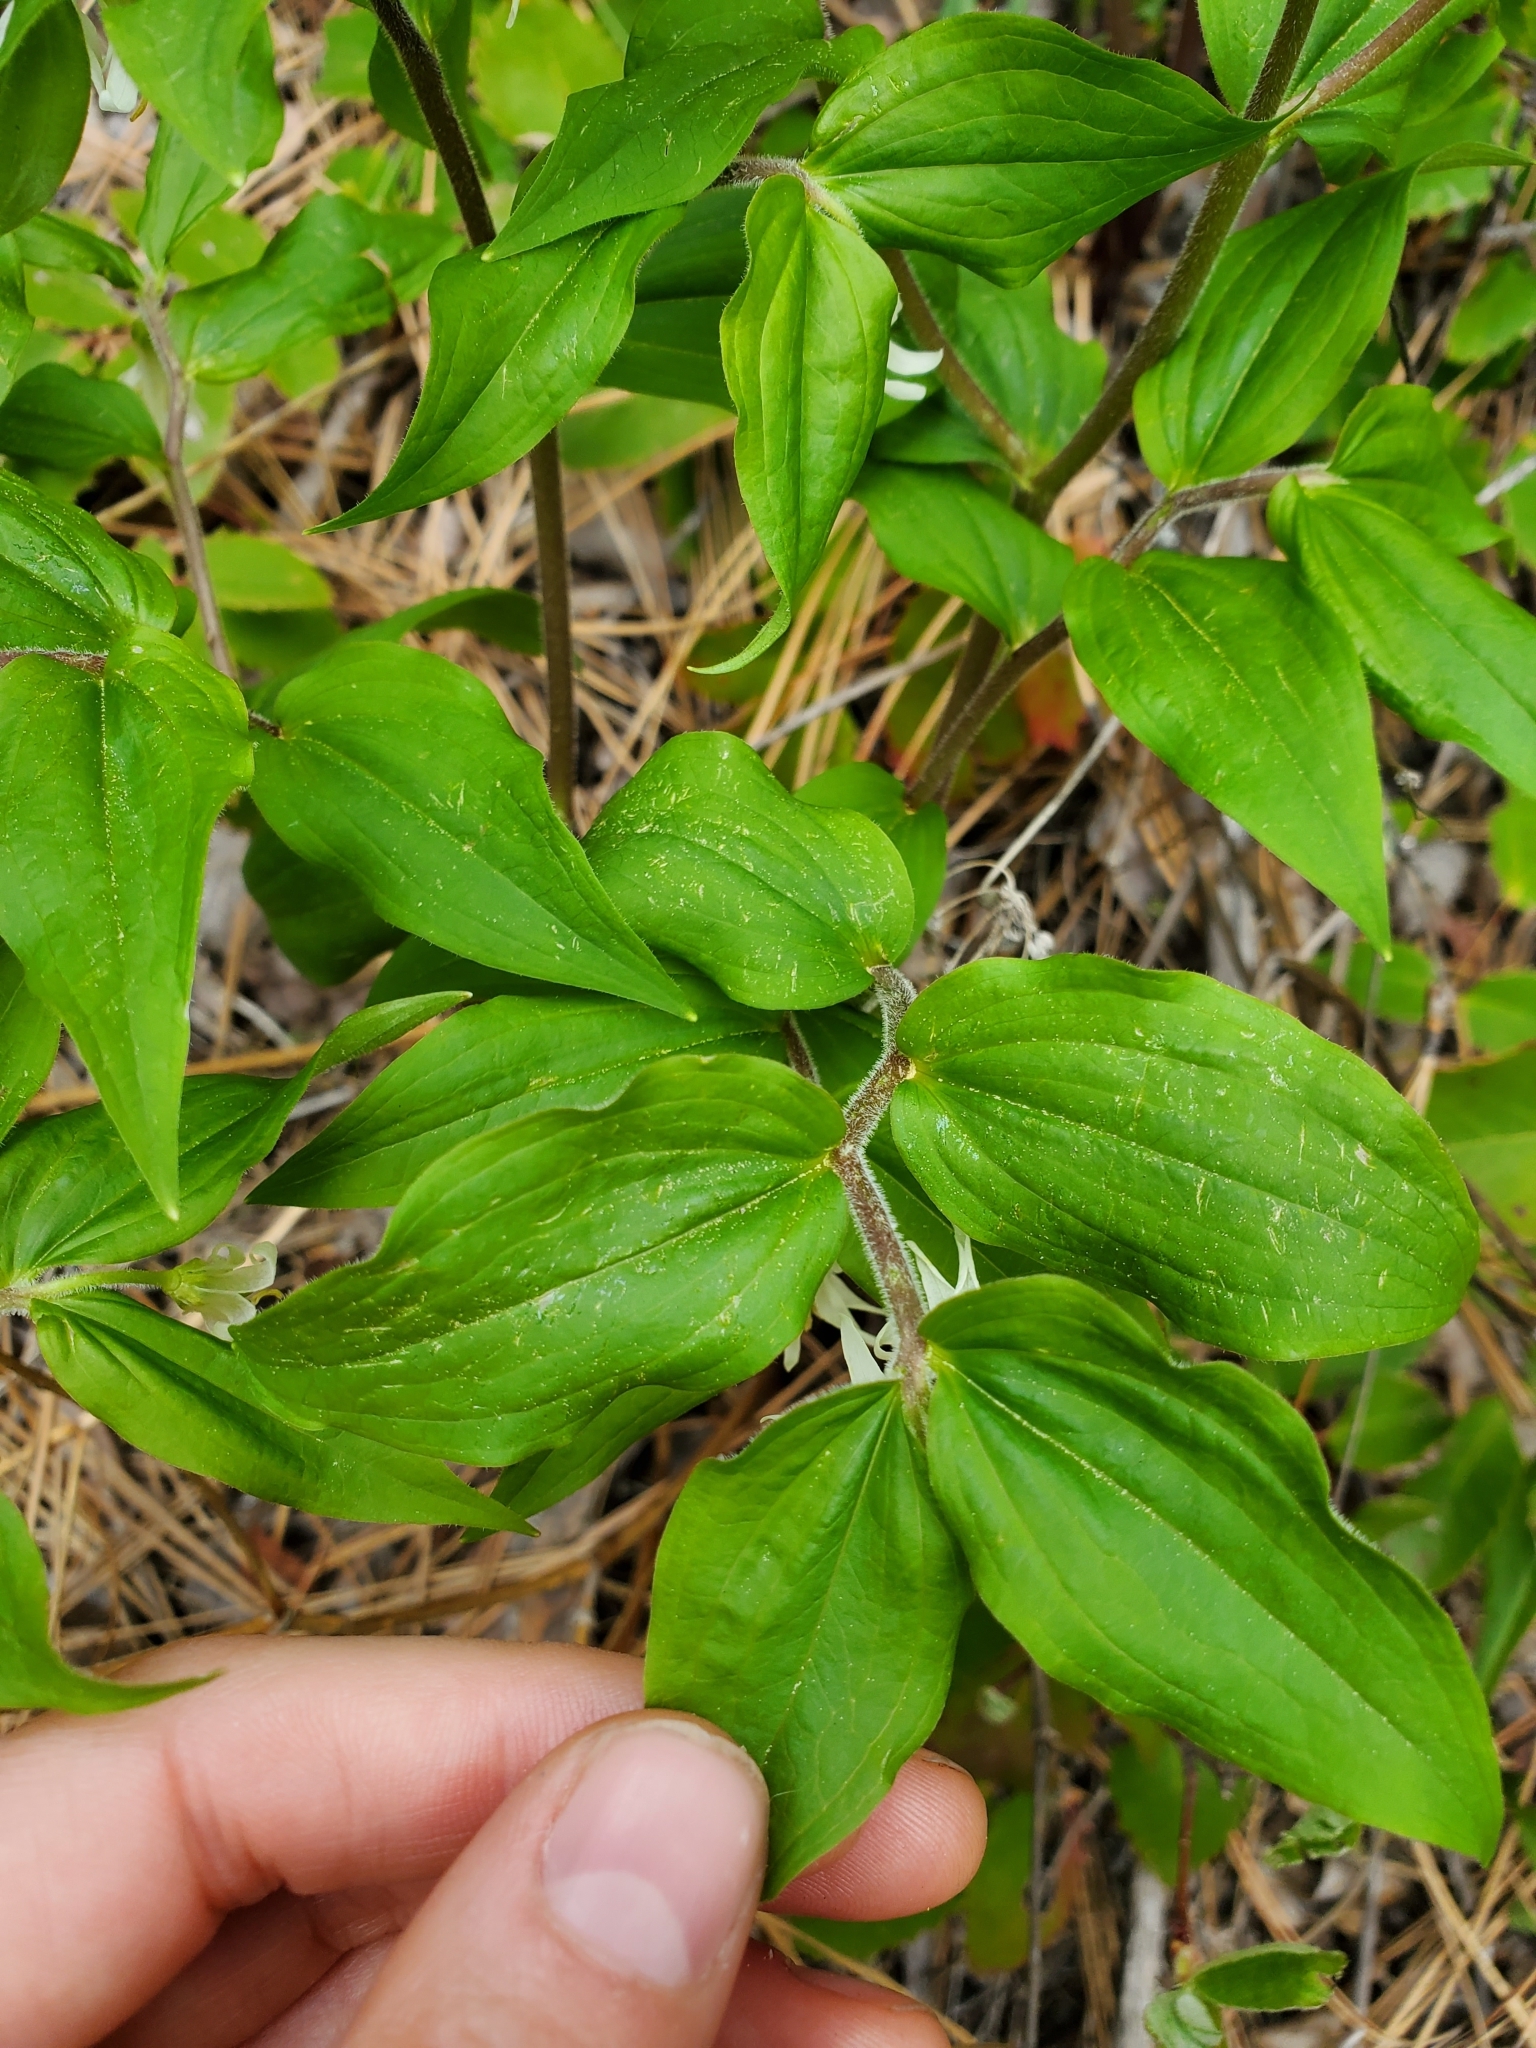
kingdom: Plantae
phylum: Tracheophyta
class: Liliopsida
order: Liliales
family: Liliaceae
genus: Prosartes
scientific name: Prosartes trachycarpa
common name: Rough-fruit fairy-bells
